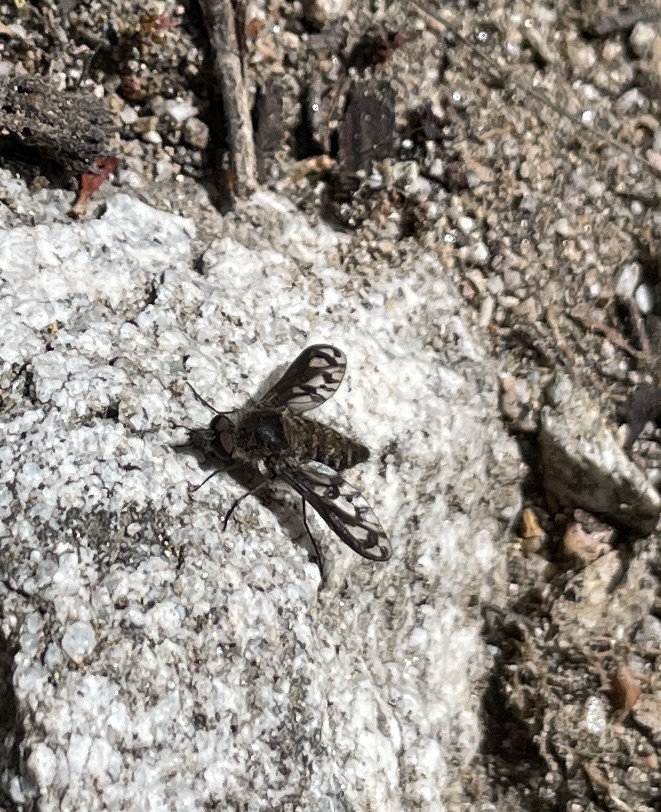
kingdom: Animalia
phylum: Arthropoda
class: Insecta
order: Diptera
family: Bombyliidae
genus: Conophorus
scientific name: Conophorus fenestratus
